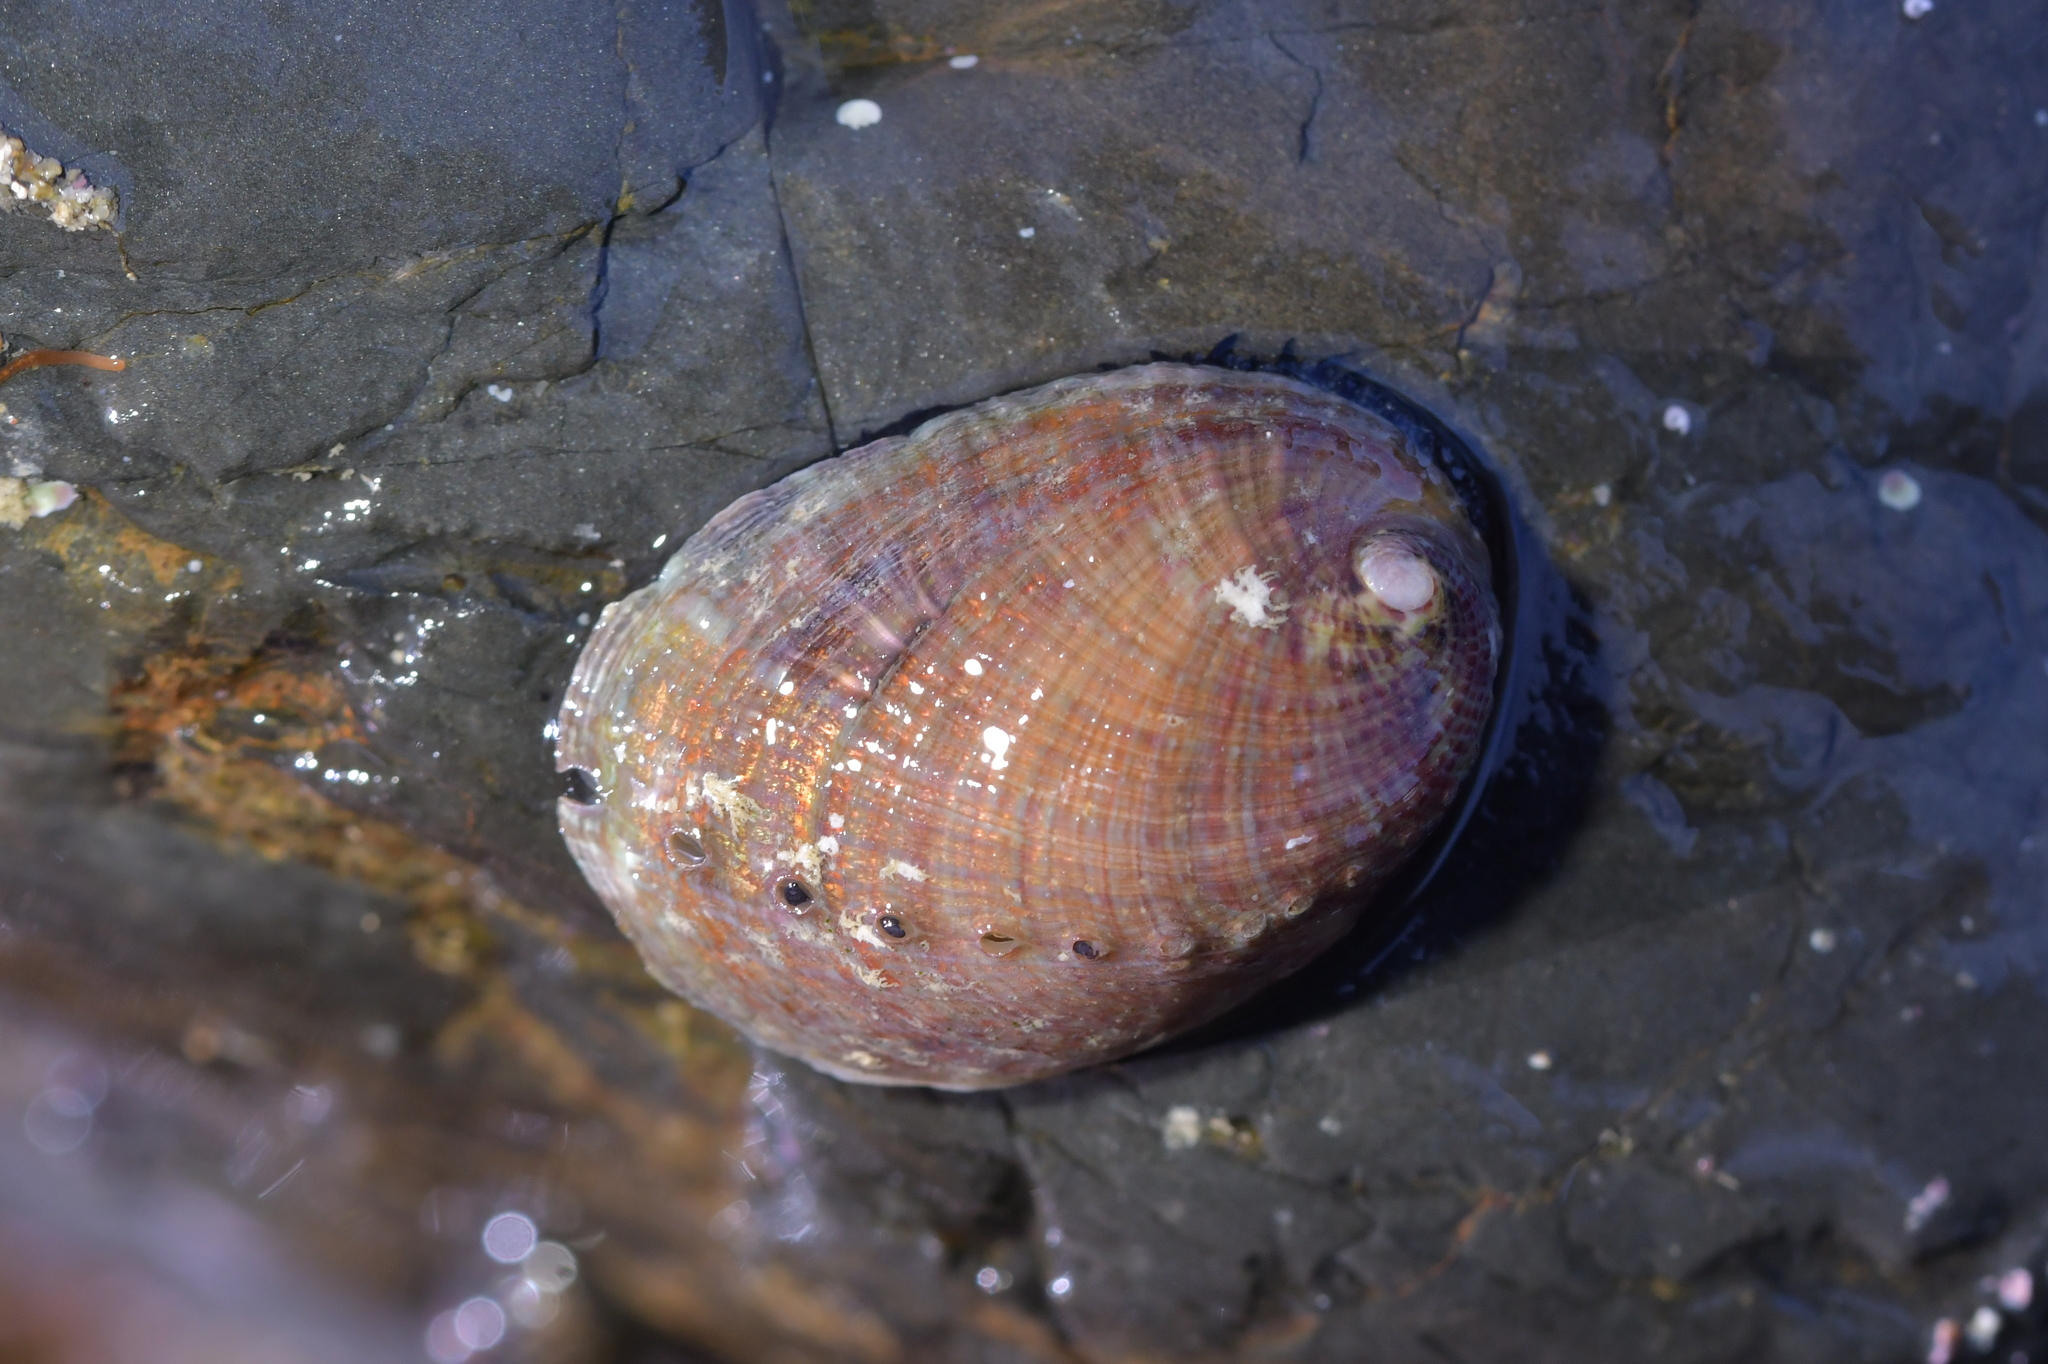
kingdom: Animalia
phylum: Mollusca
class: Gastropoda
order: Lepetellida
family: Haliotidae
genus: Haliotis
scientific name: Haliotis iris
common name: Abalone
